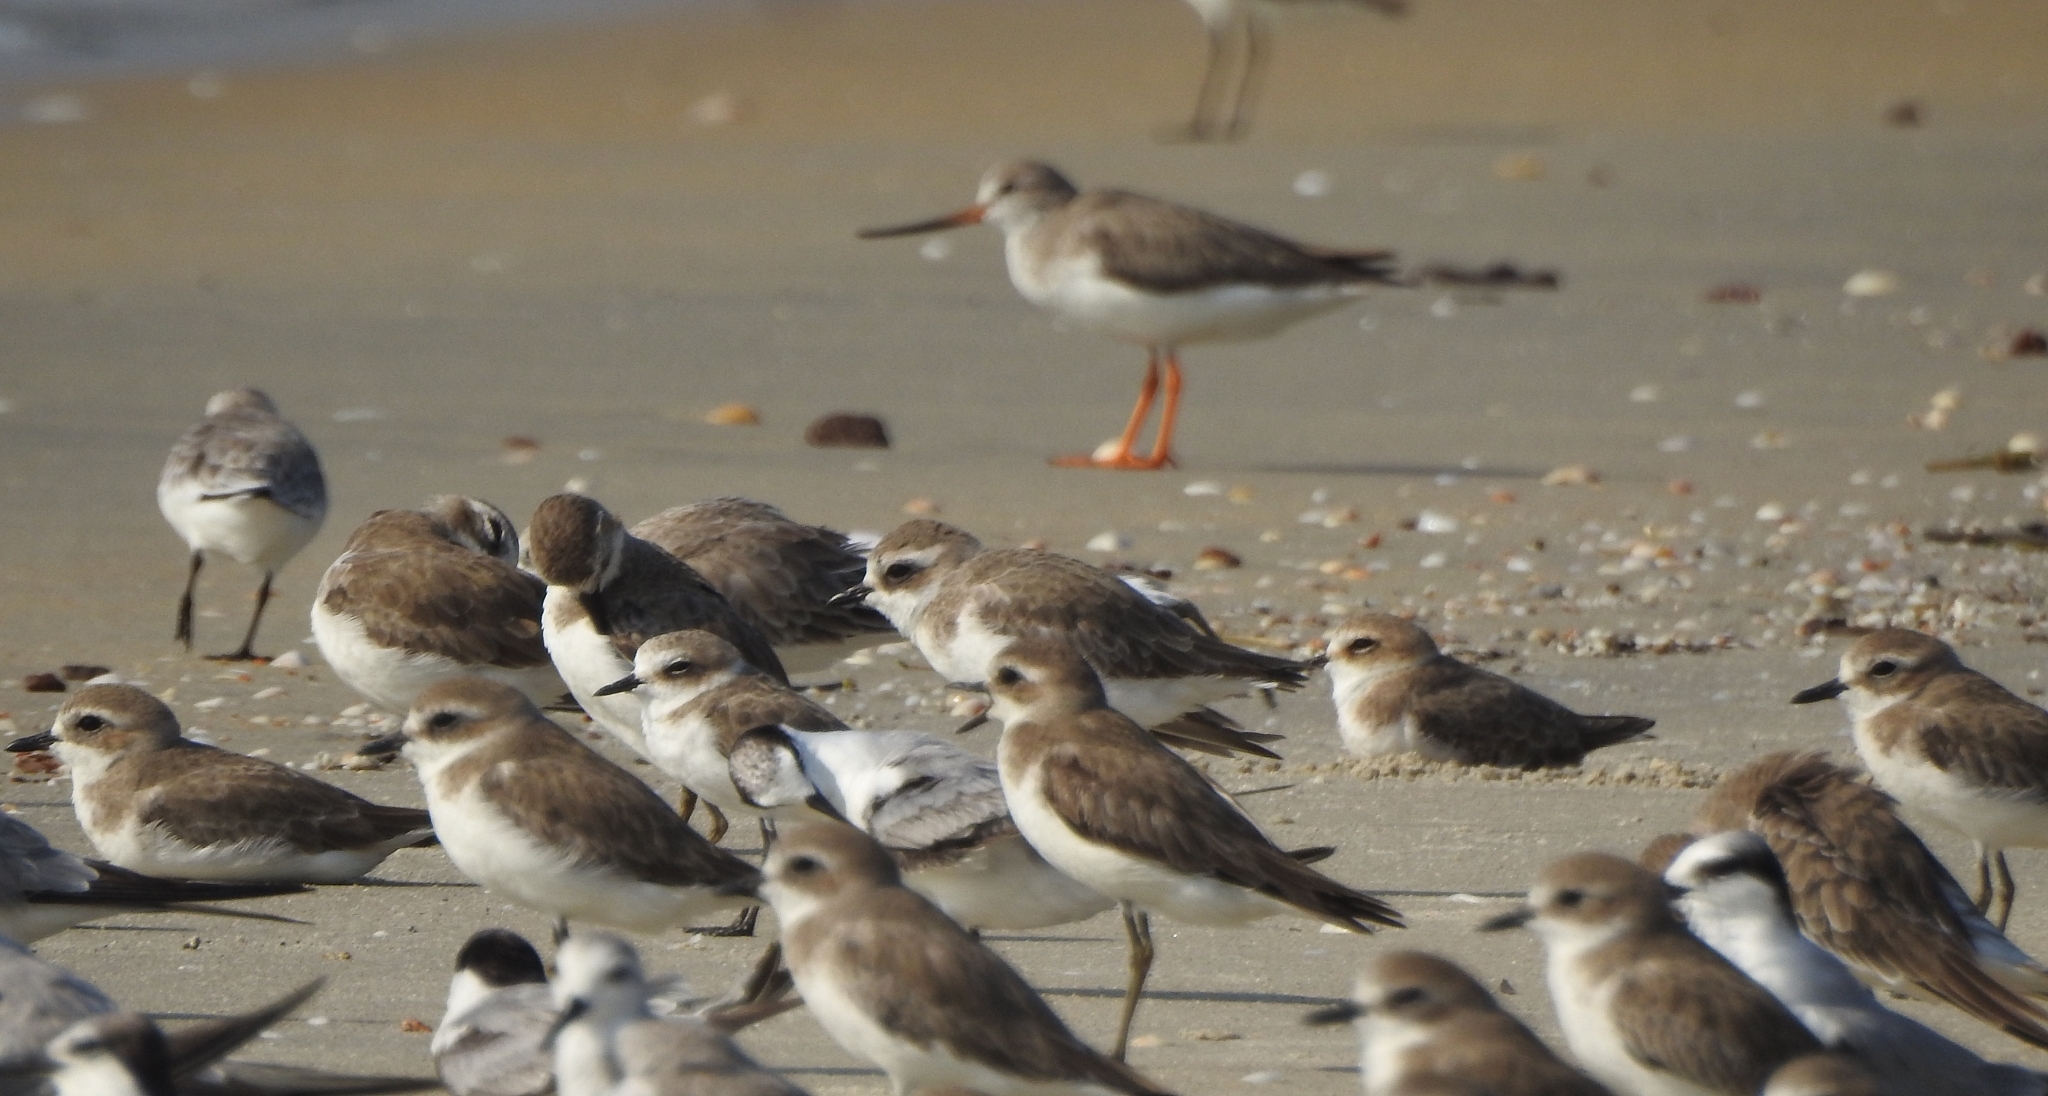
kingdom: Animalia
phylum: Chordata
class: Aves
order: Charadriiformes
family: Charadriidae
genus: Anarhynchus
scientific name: Anarhynchus
